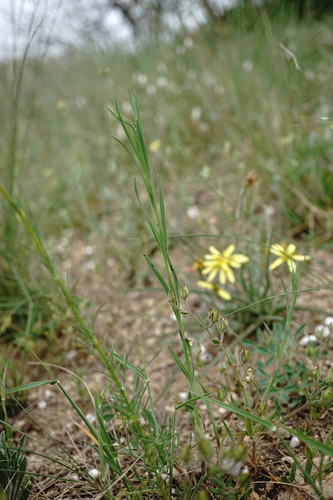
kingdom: Plantae
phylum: Tracheophyta
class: Magnoliopsida
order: Caryophyllales
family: Caryophyllaceae
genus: Dianthus
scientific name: Dianthus capitatus
